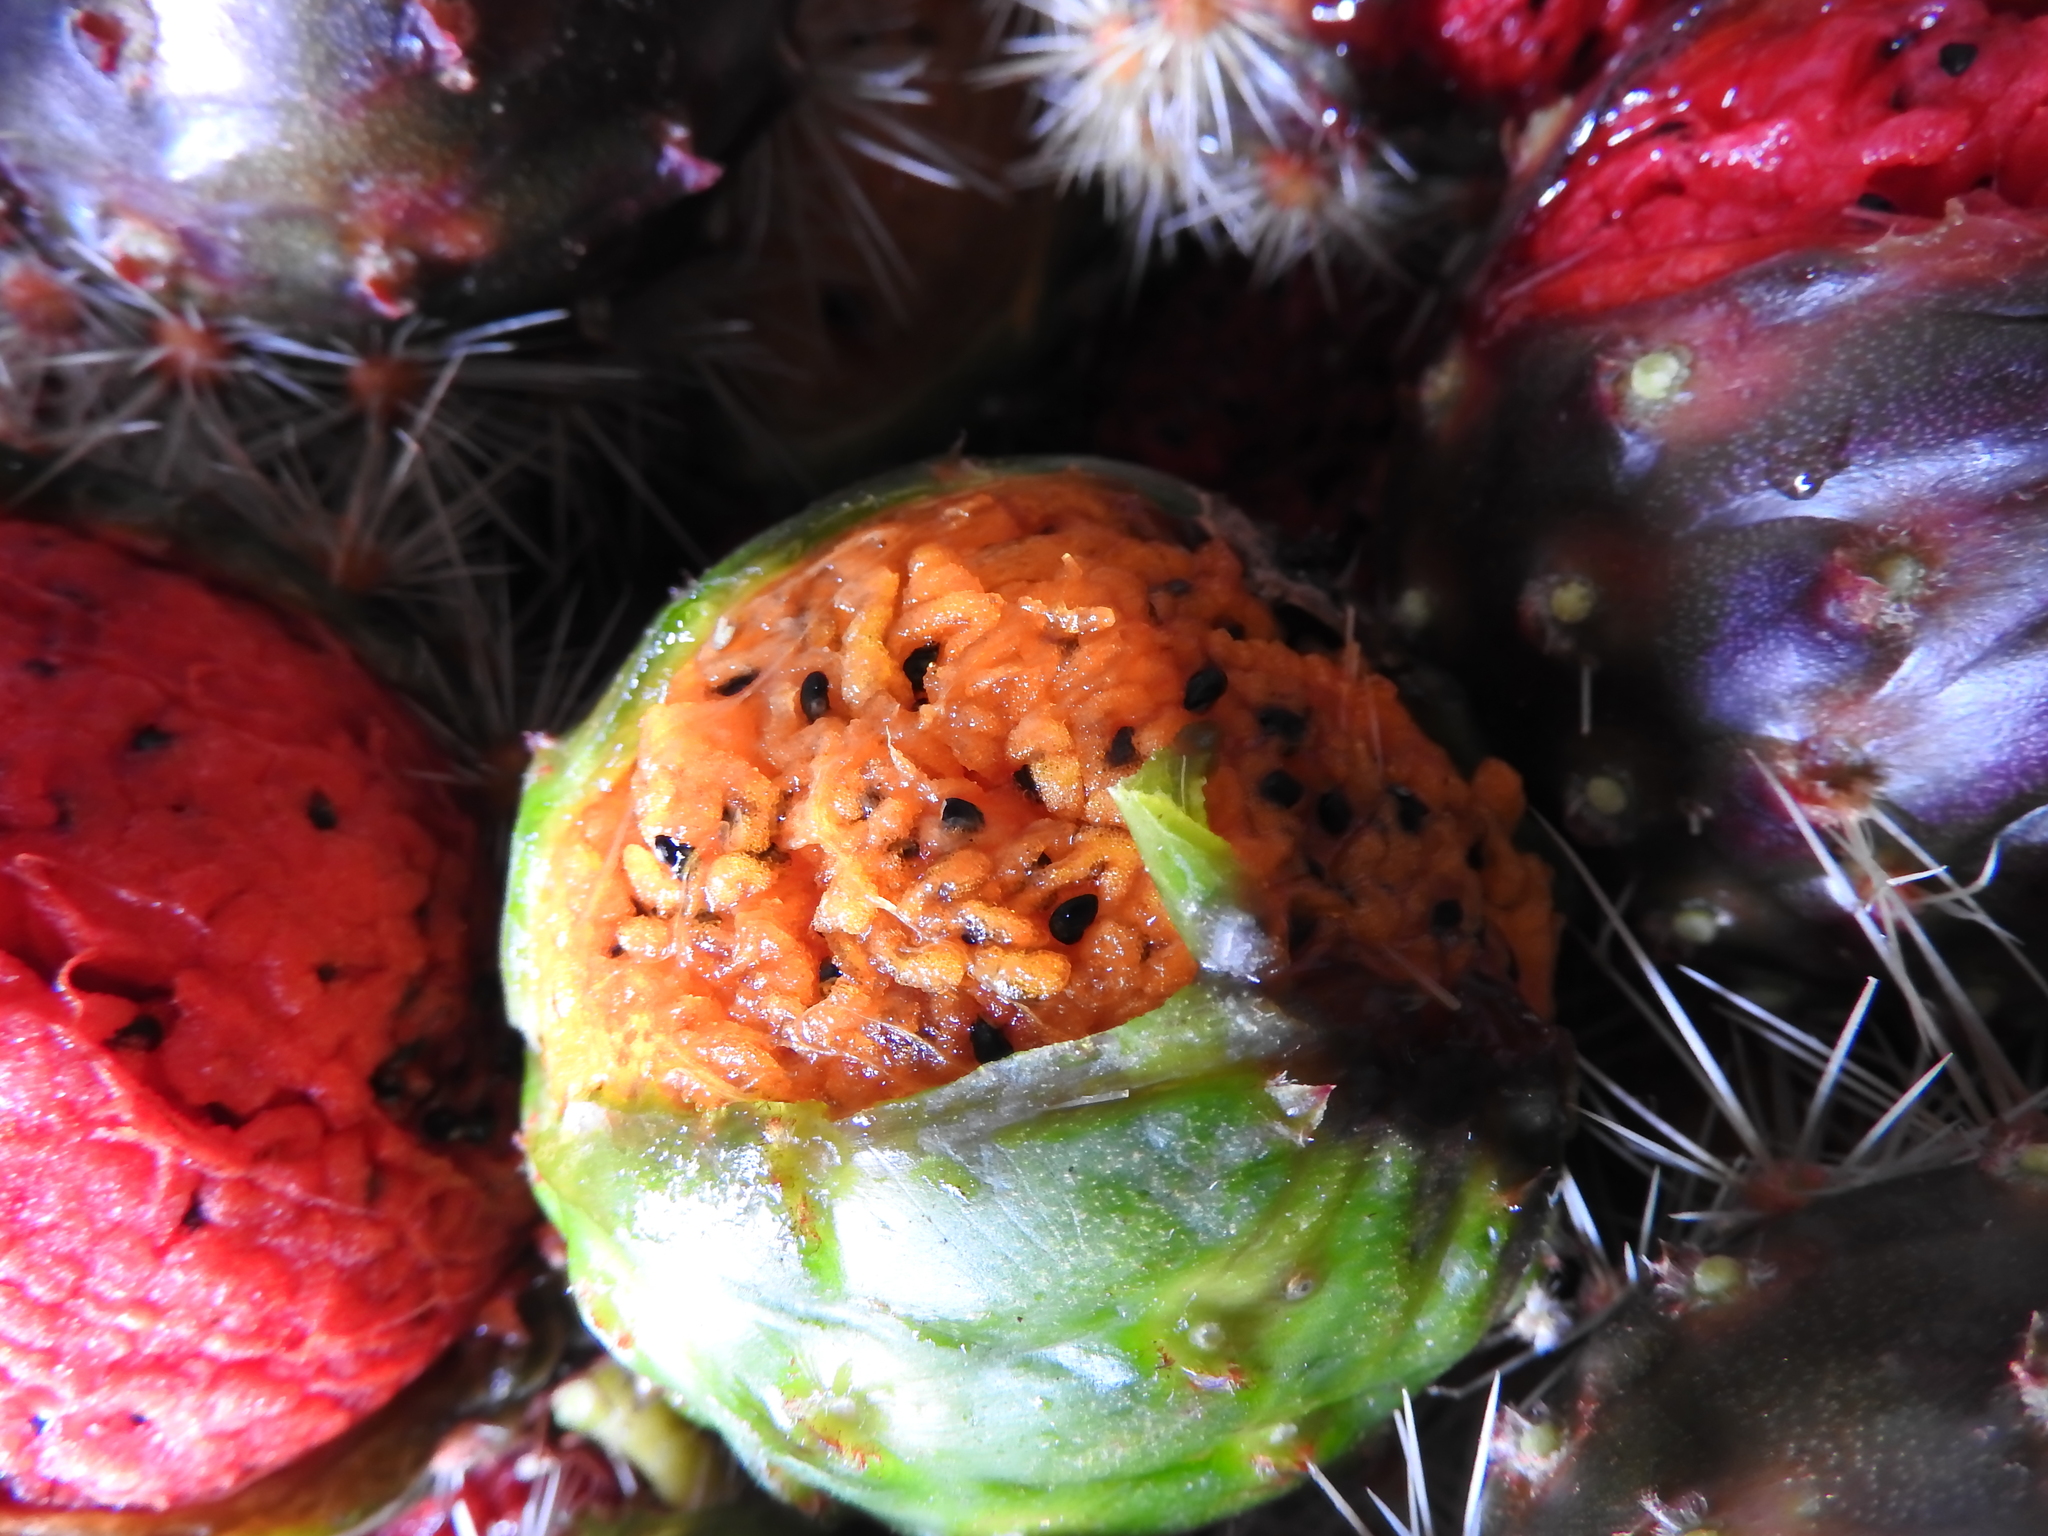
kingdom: Plantae
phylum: Tracheophyta
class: Magnoliopsida
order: Caryophyllales
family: Cactaceae
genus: Stenocereus
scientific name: Stenocereus queretaroensis
